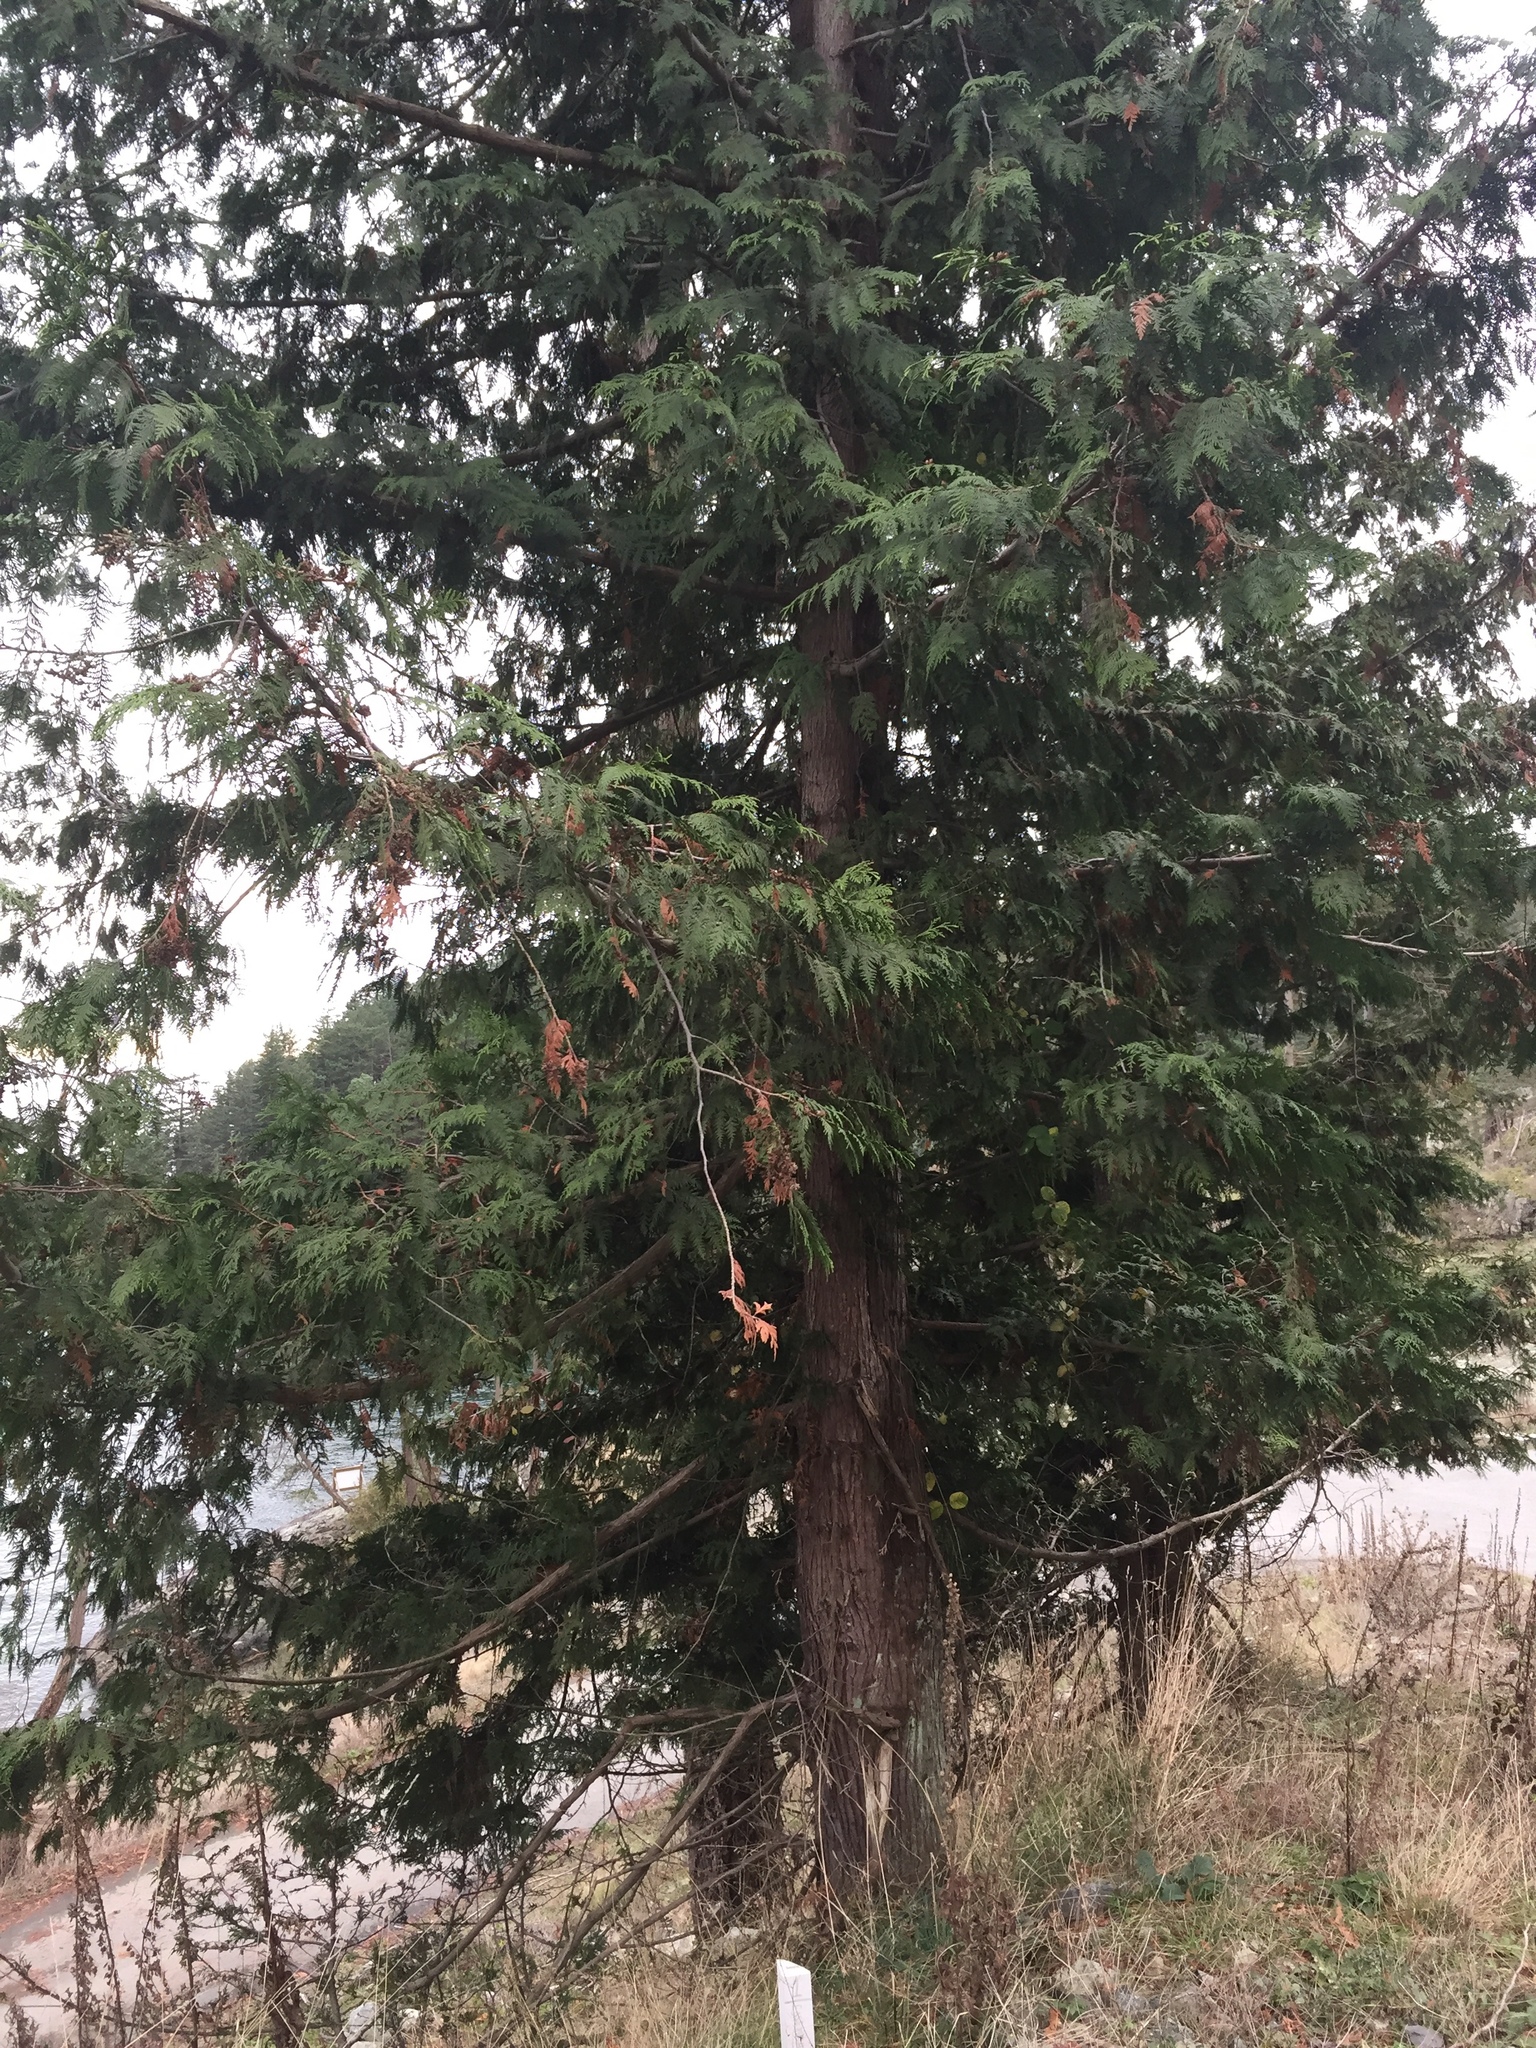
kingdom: Plantae
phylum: Tracheophyta
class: Pinopsida
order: Pinales
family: Cupressaceae
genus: Thuja
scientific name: Thuja plicata
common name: Western red-cedar
